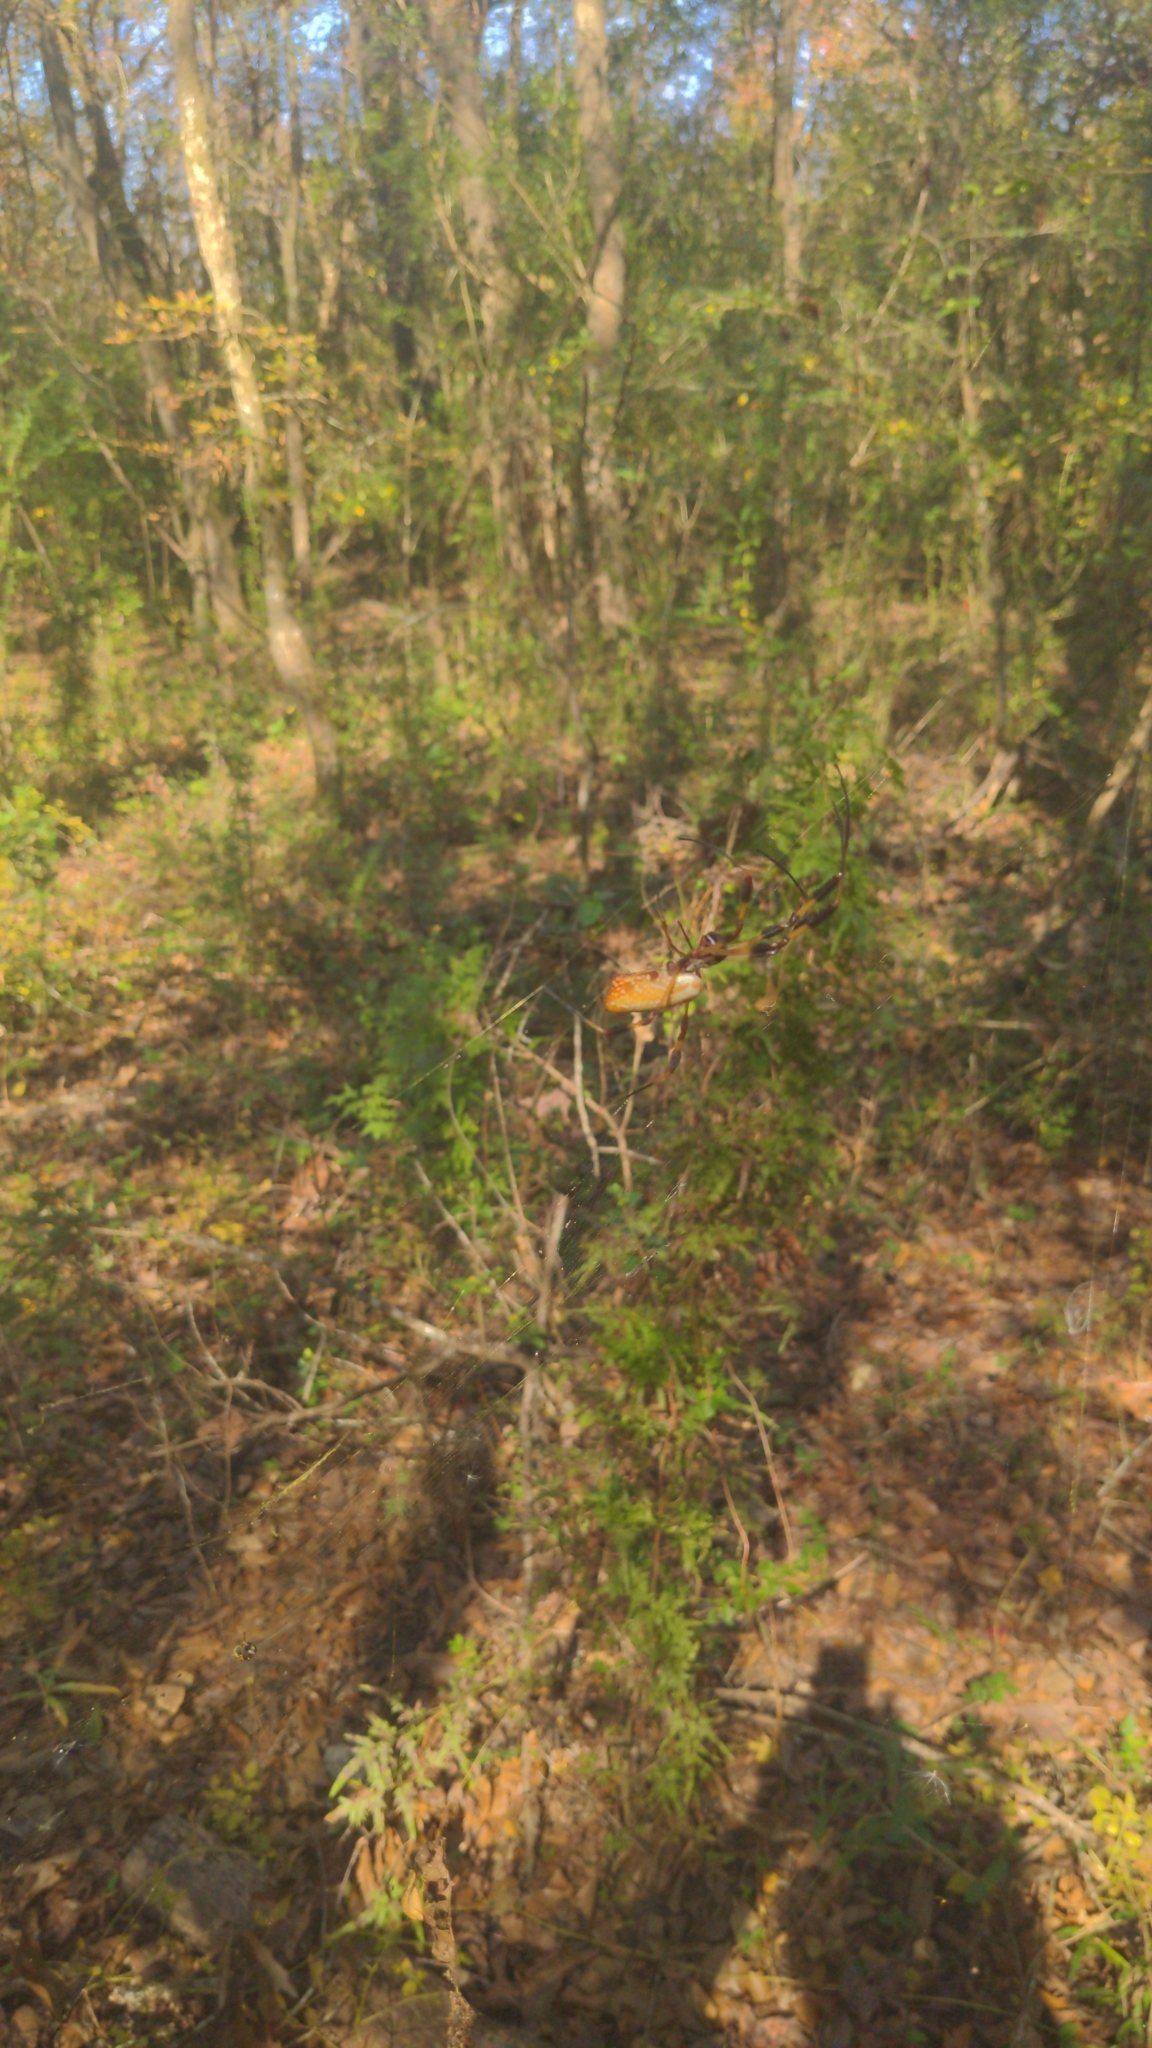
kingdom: Animalia
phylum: Arthropoda
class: Arachnida
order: Araneae
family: Araneidae
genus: Trichonephila
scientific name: Trichonephila clavipes
